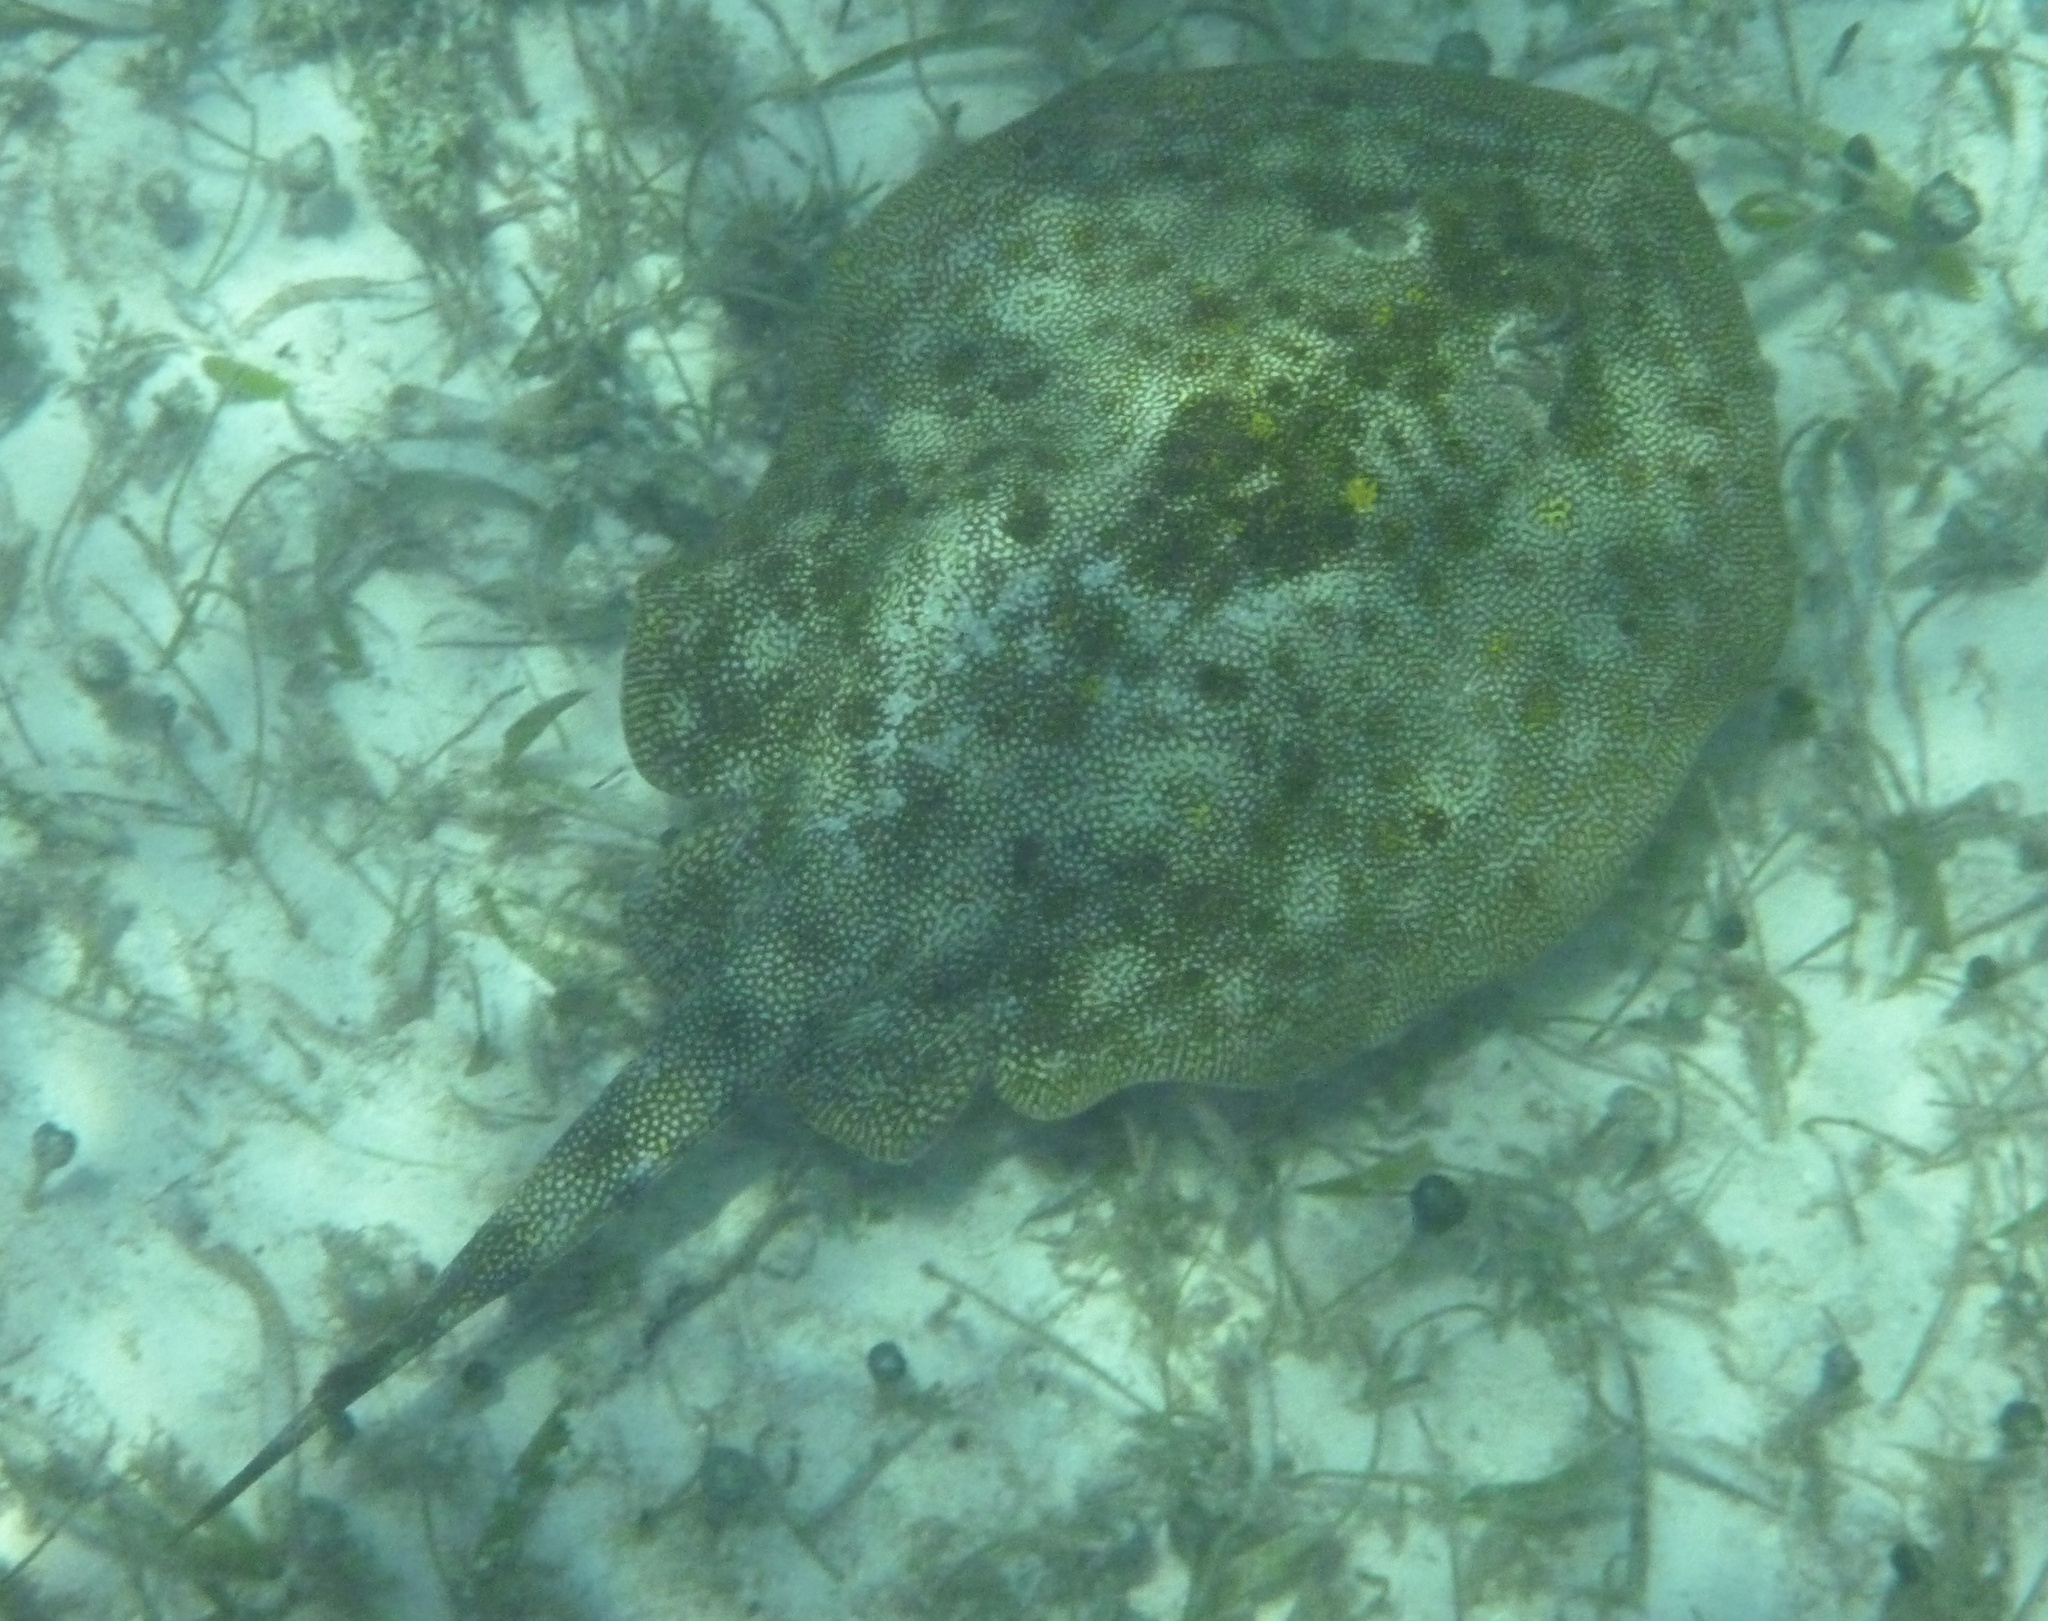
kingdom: Animalia
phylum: Chordata
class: Elasmobranchii
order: Myliobatiformes
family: Urotrygonidae
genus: Urobatis
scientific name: Urobatis jamaicensis
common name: Yellow stingray
